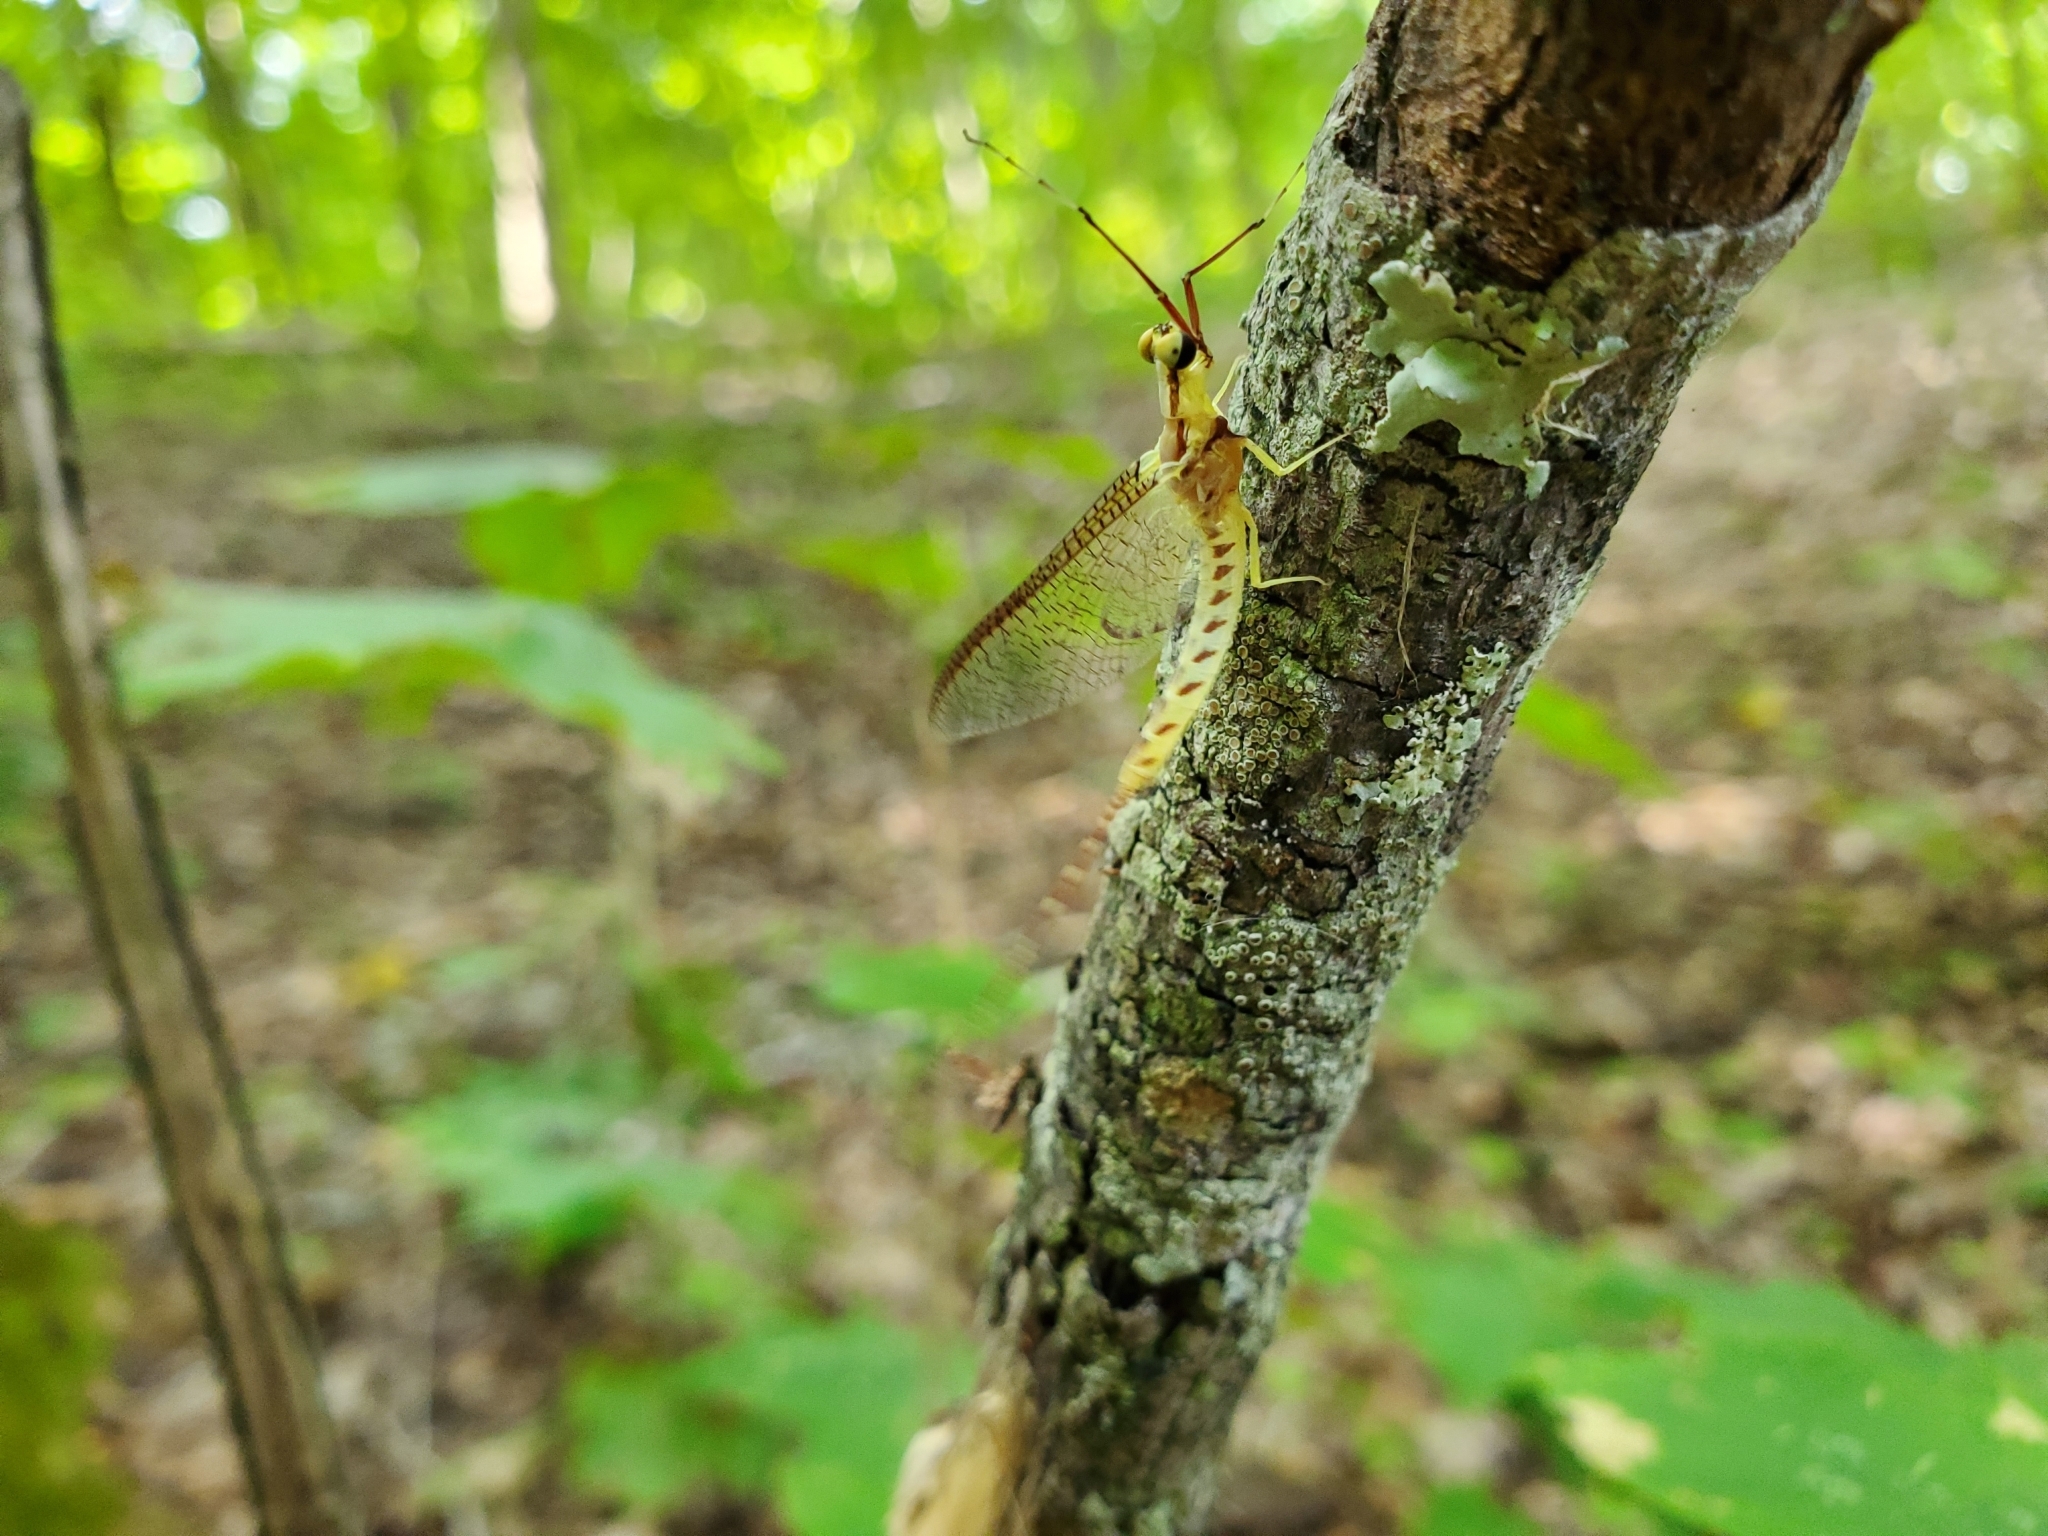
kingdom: Animalia
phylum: Arthropoda
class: Insecta
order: Ephemeroptera
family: Ephemeridae
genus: Hexagenia
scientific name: Hexagenia limbata
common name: Giant mayfly
